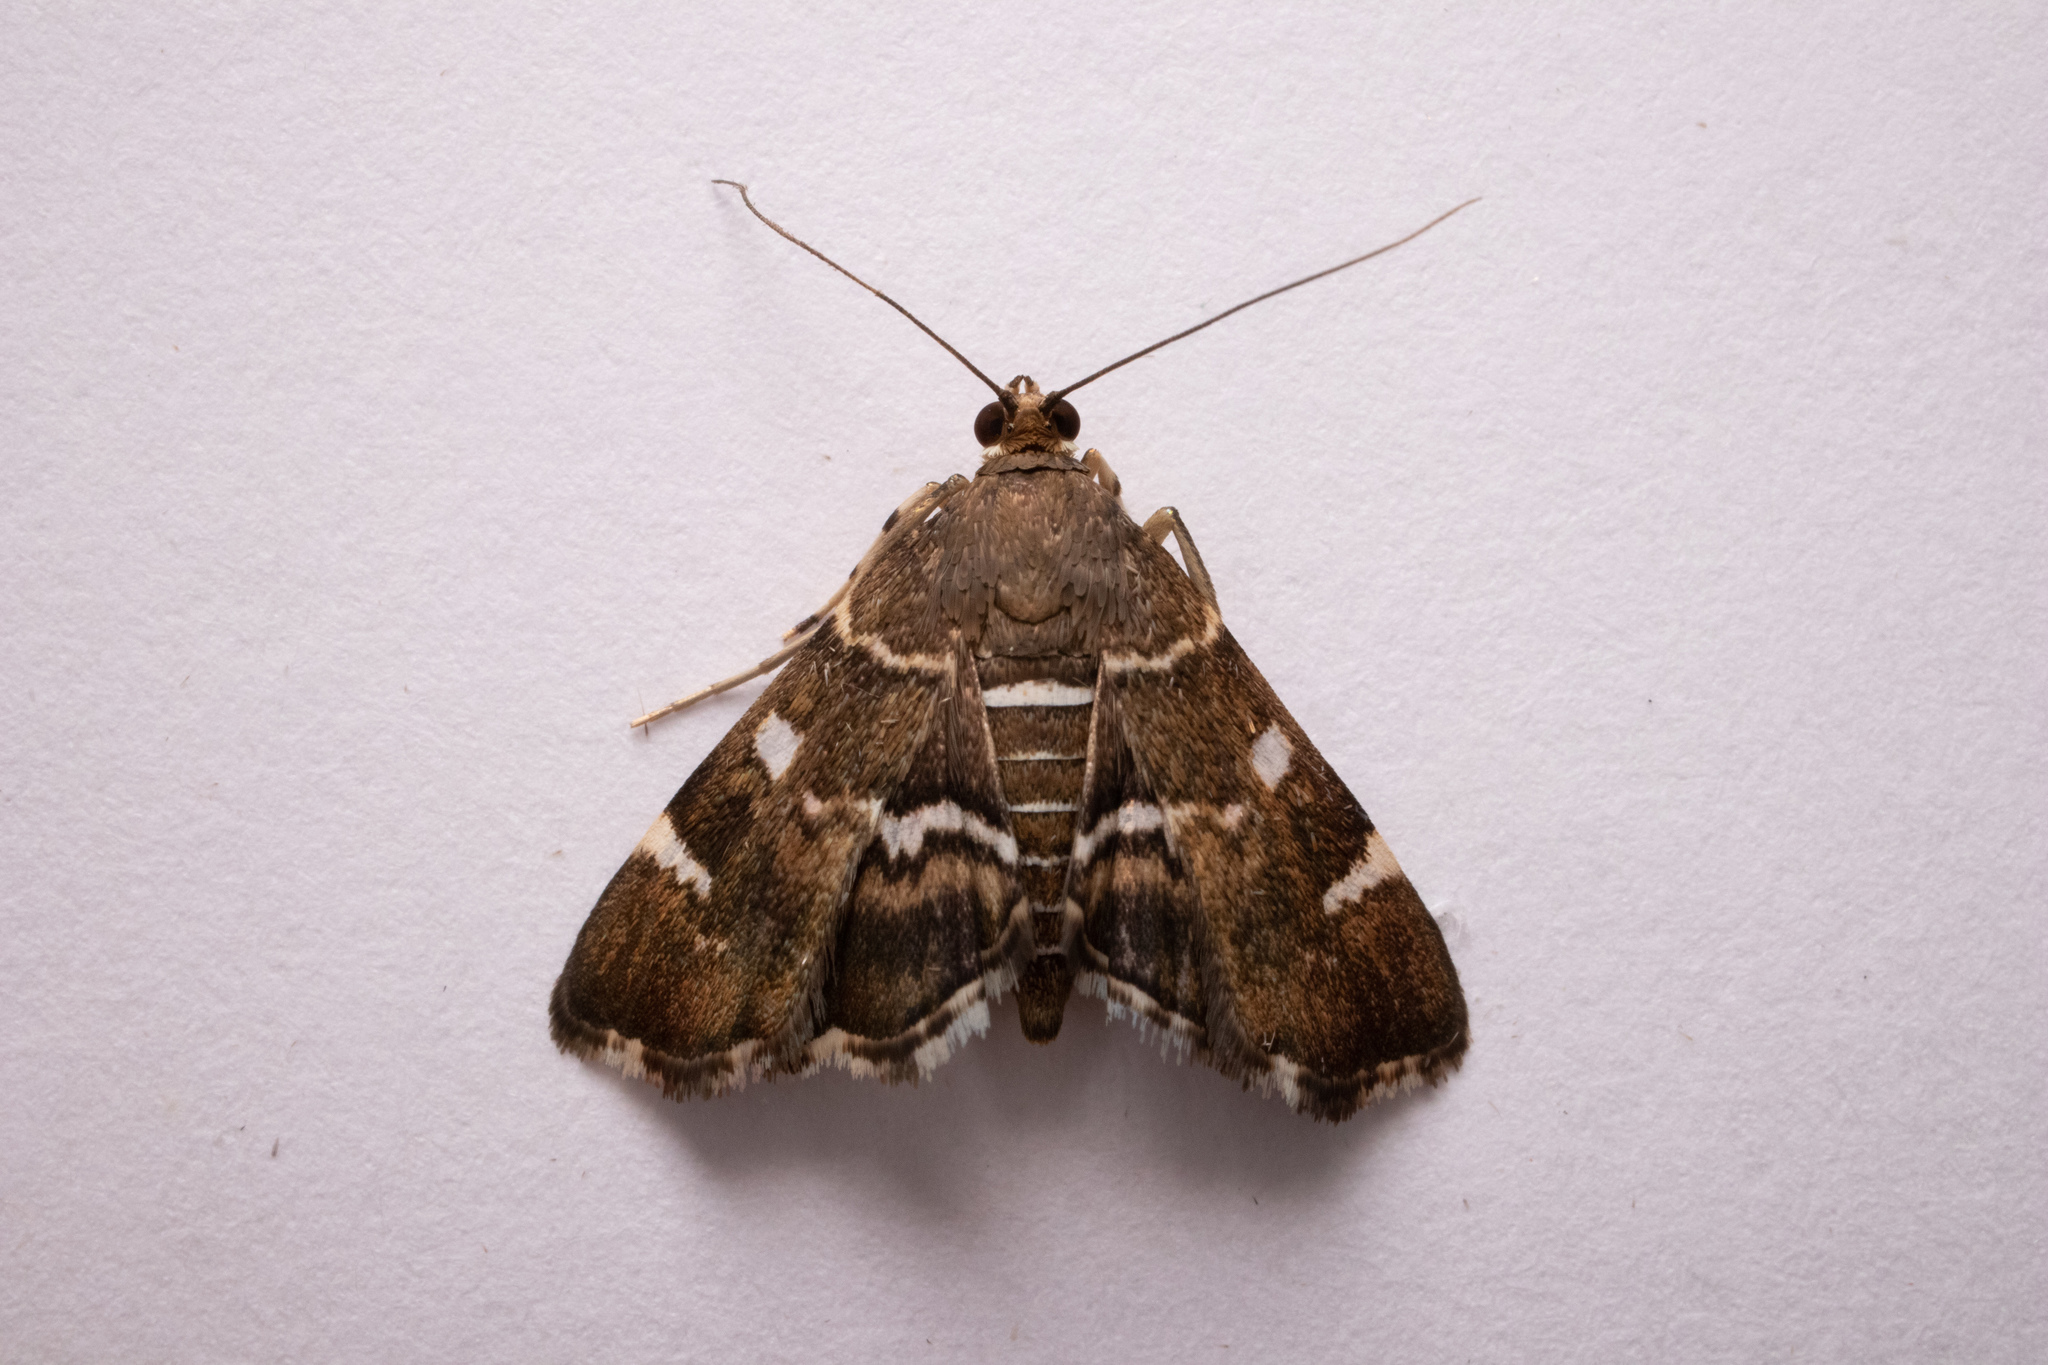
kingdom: Animalia
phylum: Arthropoda
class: Insecta
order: Lepidoptera
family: Crambidae
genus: Hymenia
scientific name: Hymenia perspectalis
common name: Spotted beet webworm
